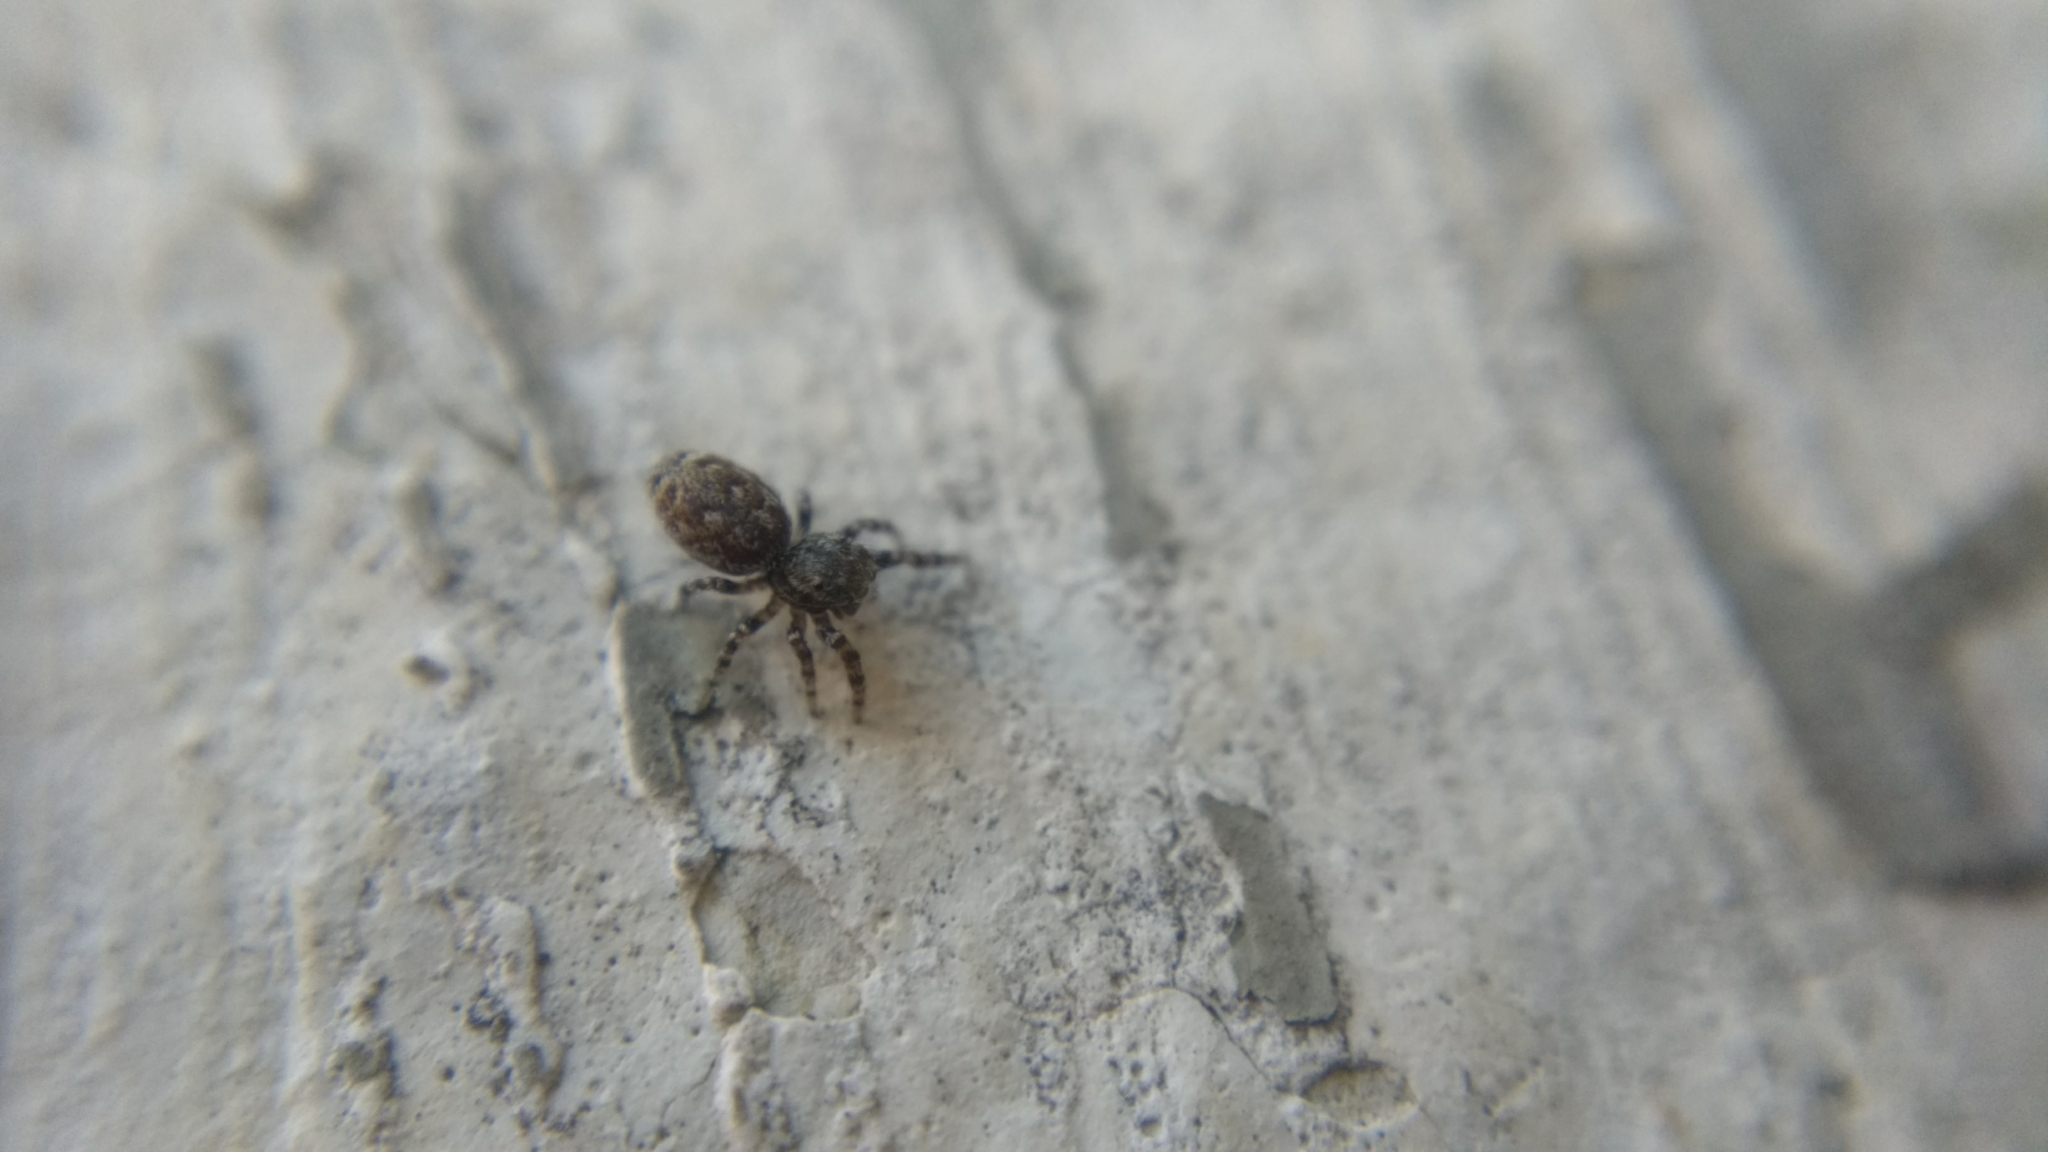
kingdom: Animalia
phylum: Arthropoda
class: Arachnida
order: Araneae
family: Salticidae
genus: Pelegrina
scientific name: Pelegrina galathea
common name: Jumping spiders
